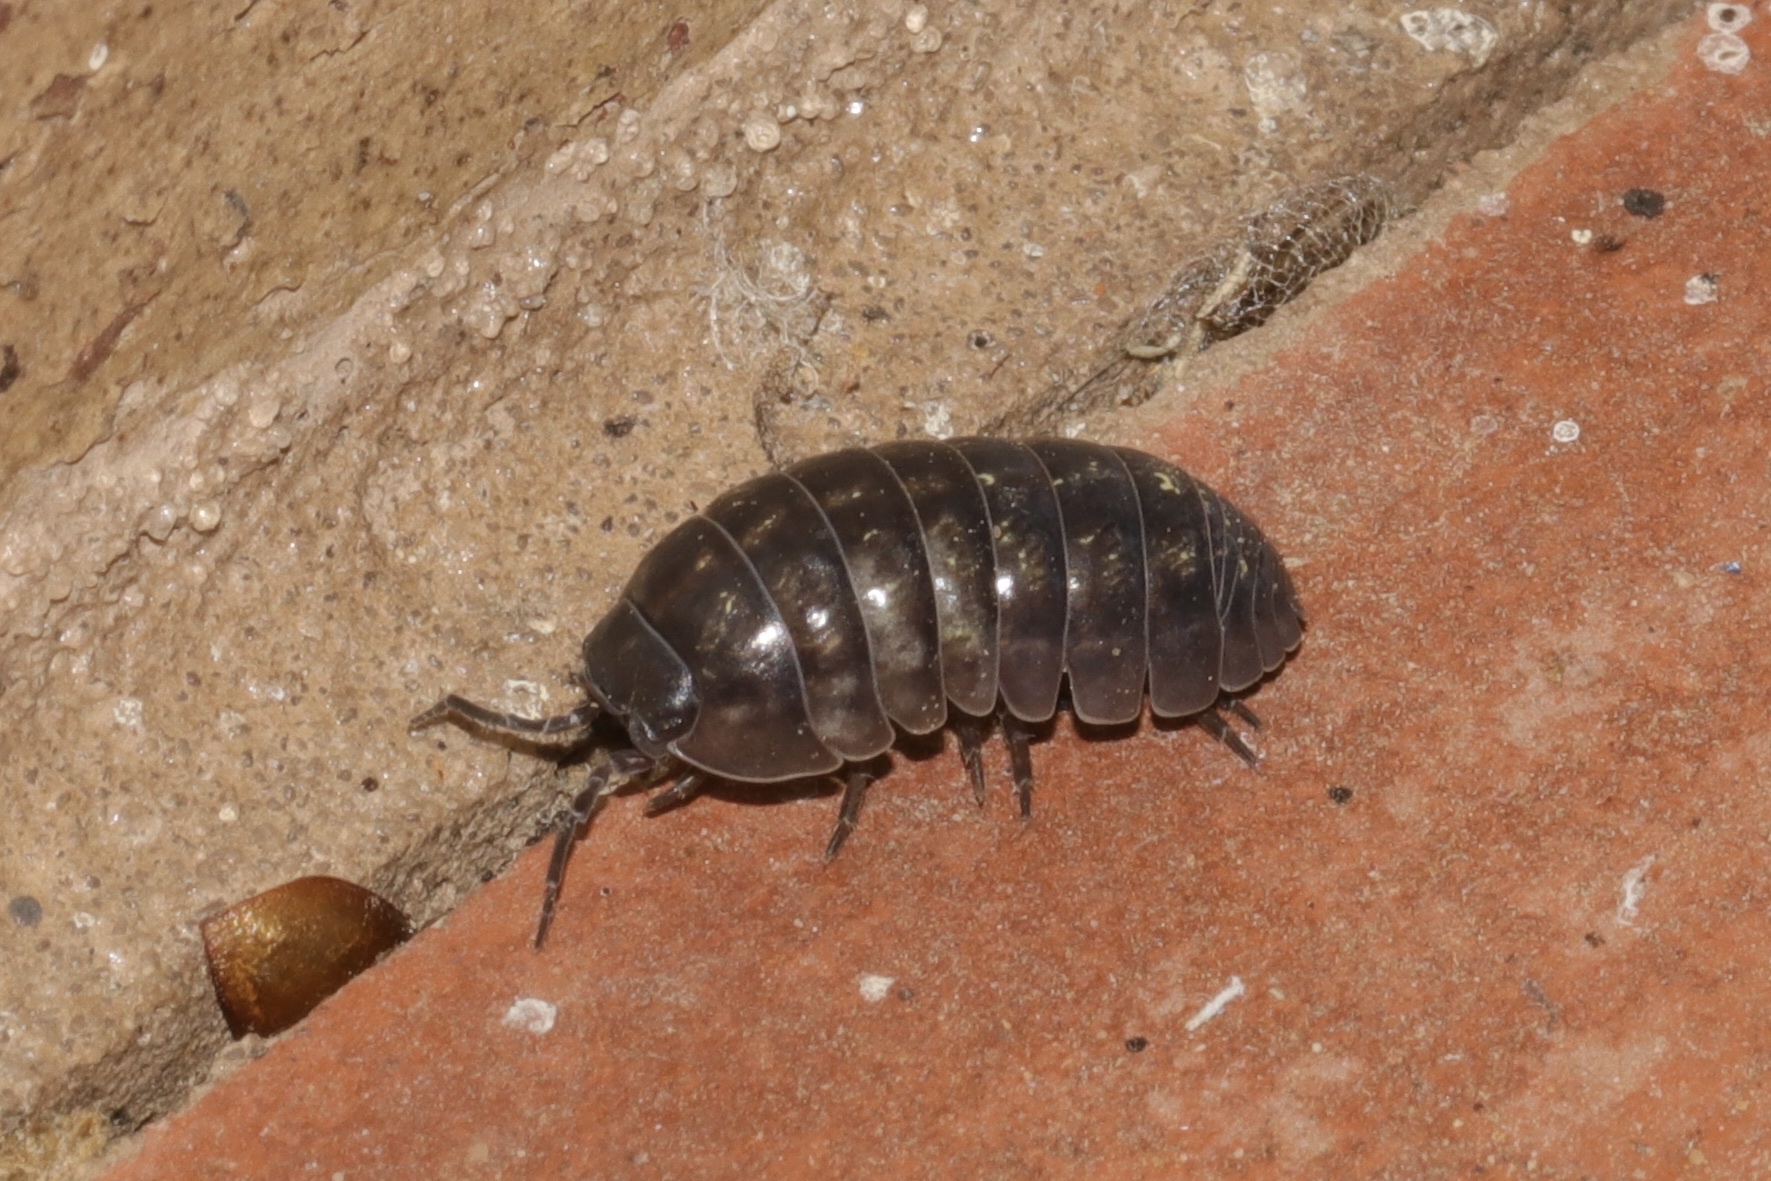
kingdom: Animalia
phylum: Arthropoda
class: Malacostraca
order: Isopoda
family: Armadillidiidae
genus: Armadillidium
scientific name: Armadillidium vulgare
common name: Common pill woodlouse
